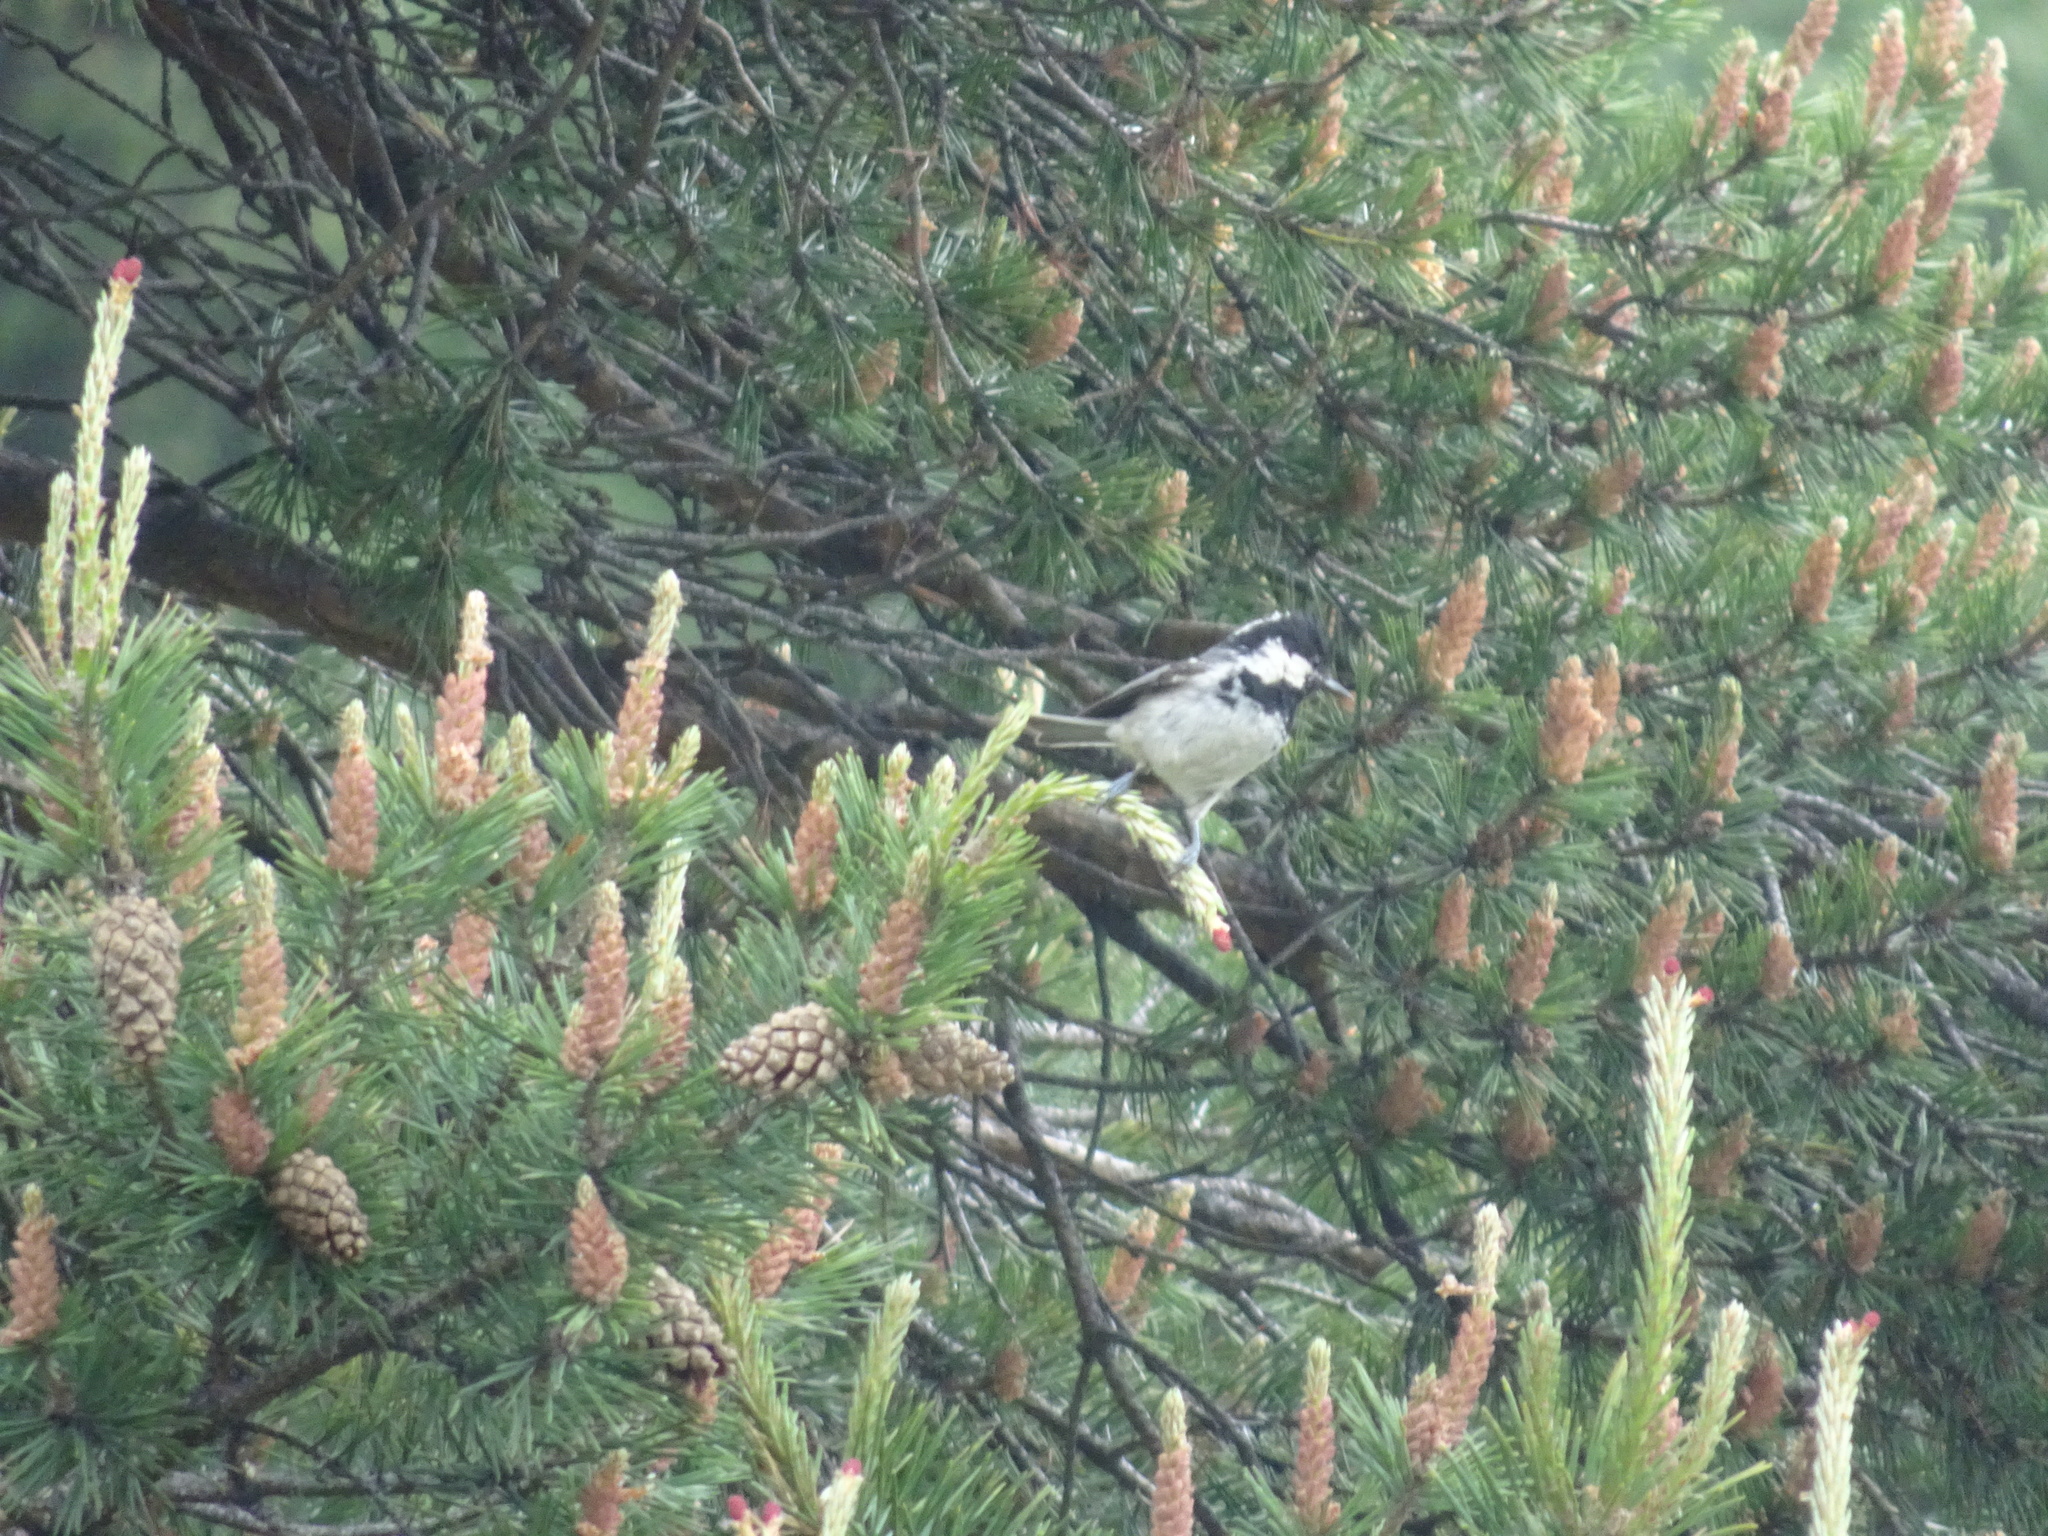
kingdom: Animalia
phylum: Chordata
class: Aves
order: Passeriformes
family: Paridae
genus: Periparus
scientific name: Periparus ater
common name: Coal tit
